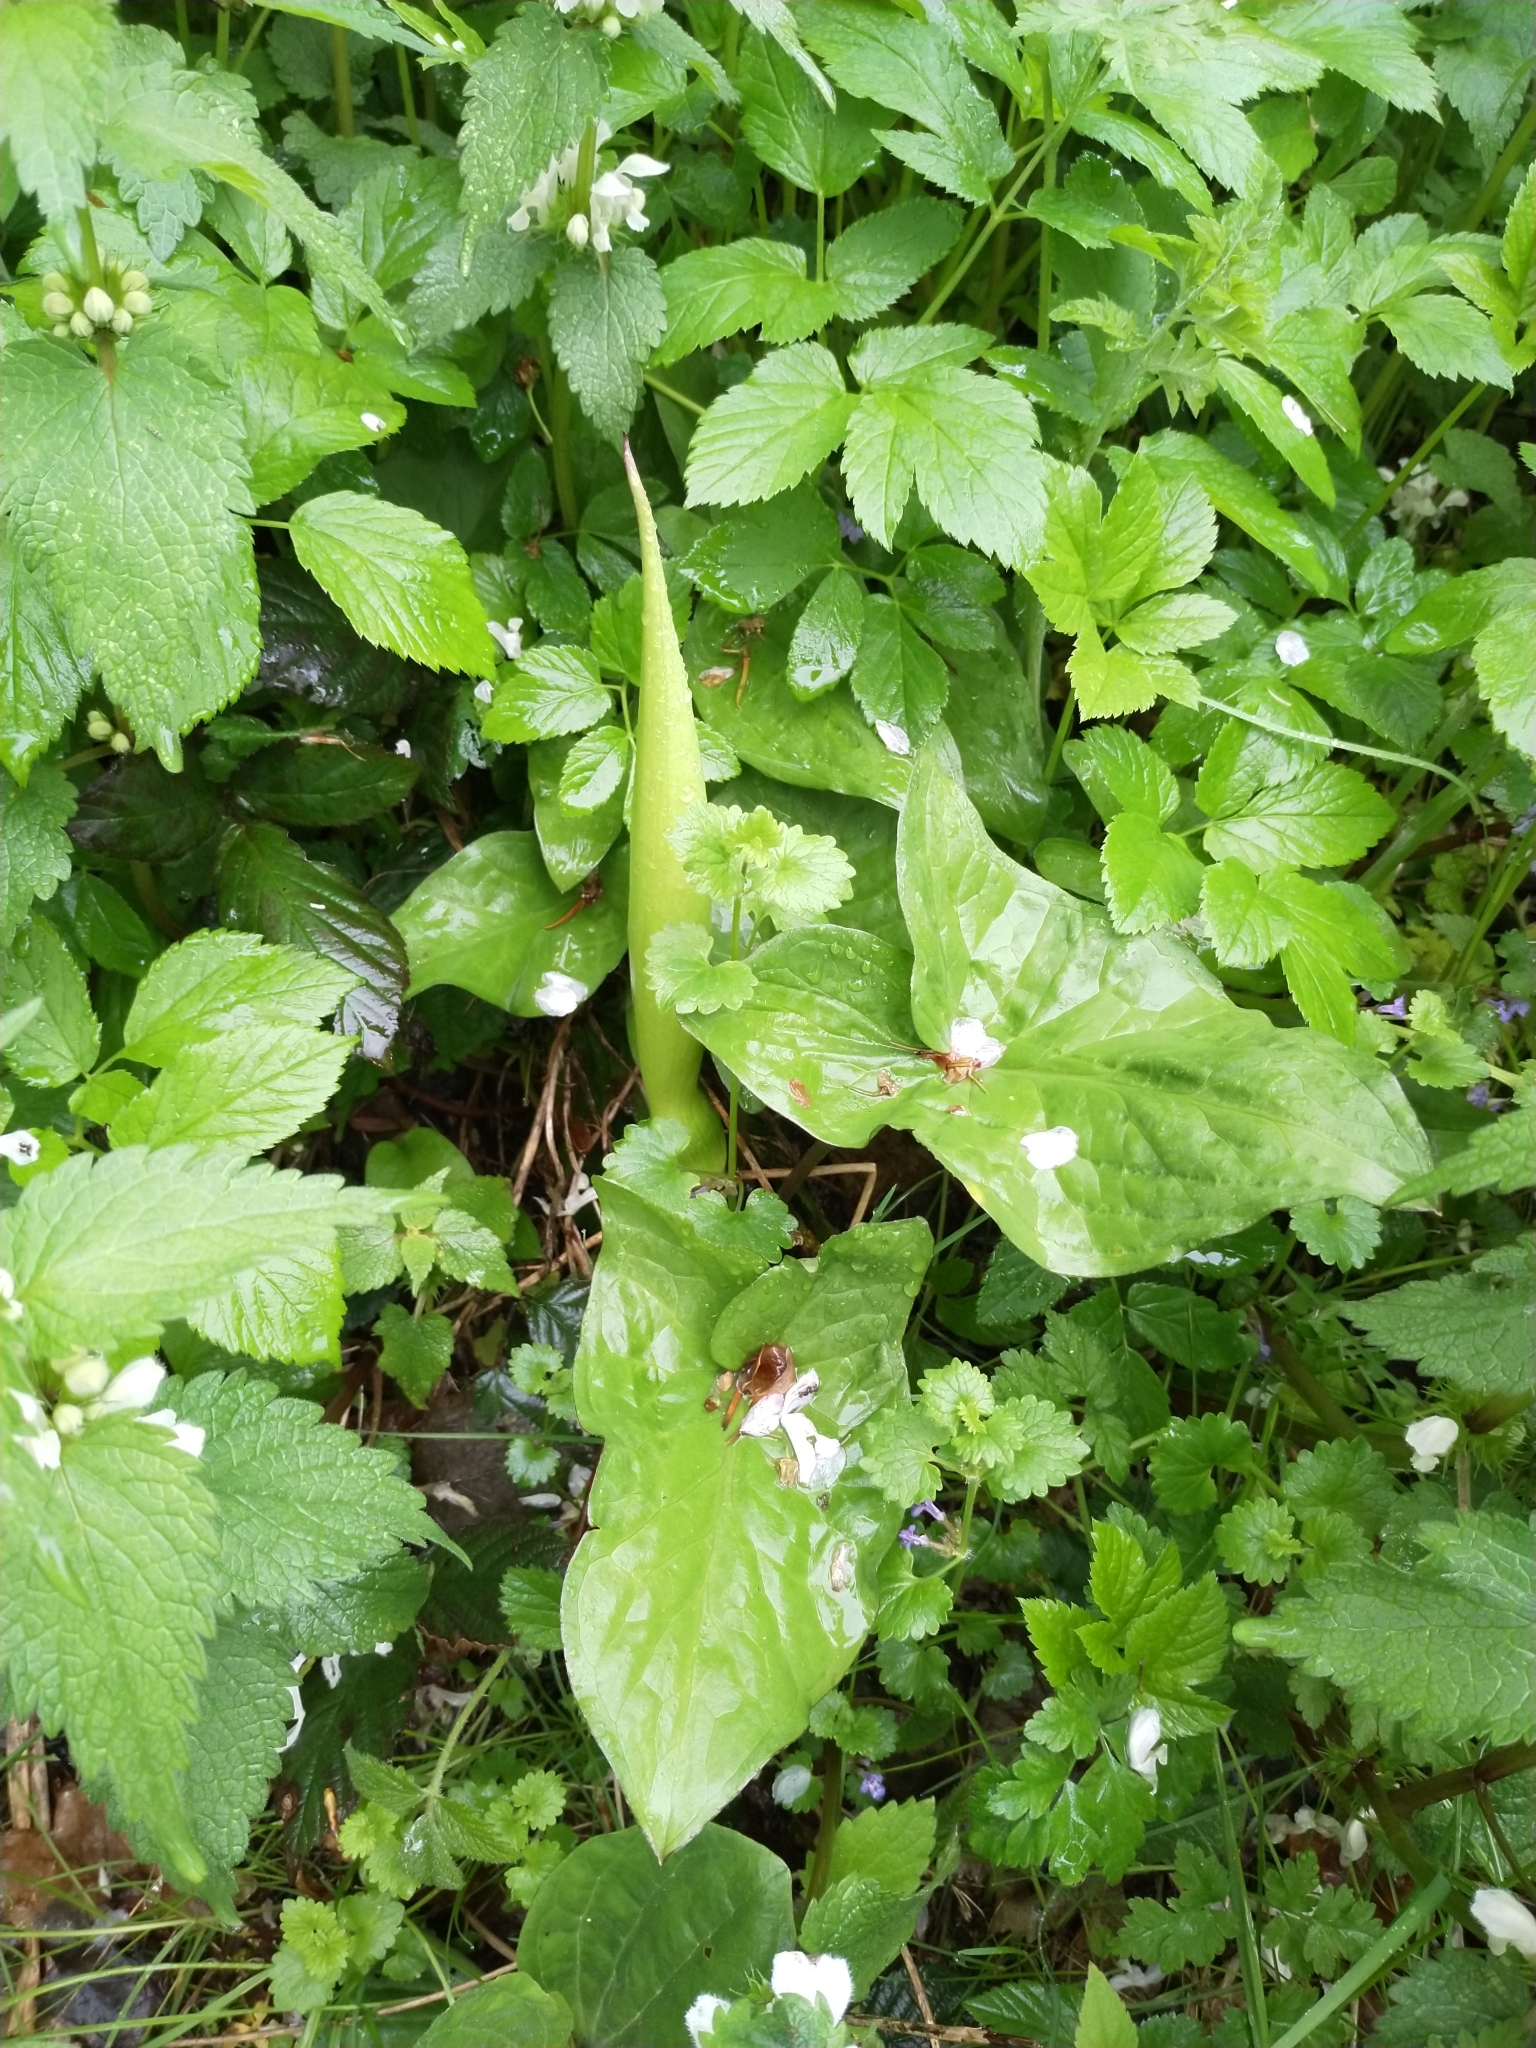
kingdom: Plantae
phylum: Tracheophyta
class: Liliopsida
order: Alismatales
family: Araceae
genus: Arum
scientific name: Arum maculatum
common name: Lords-and-ladies
